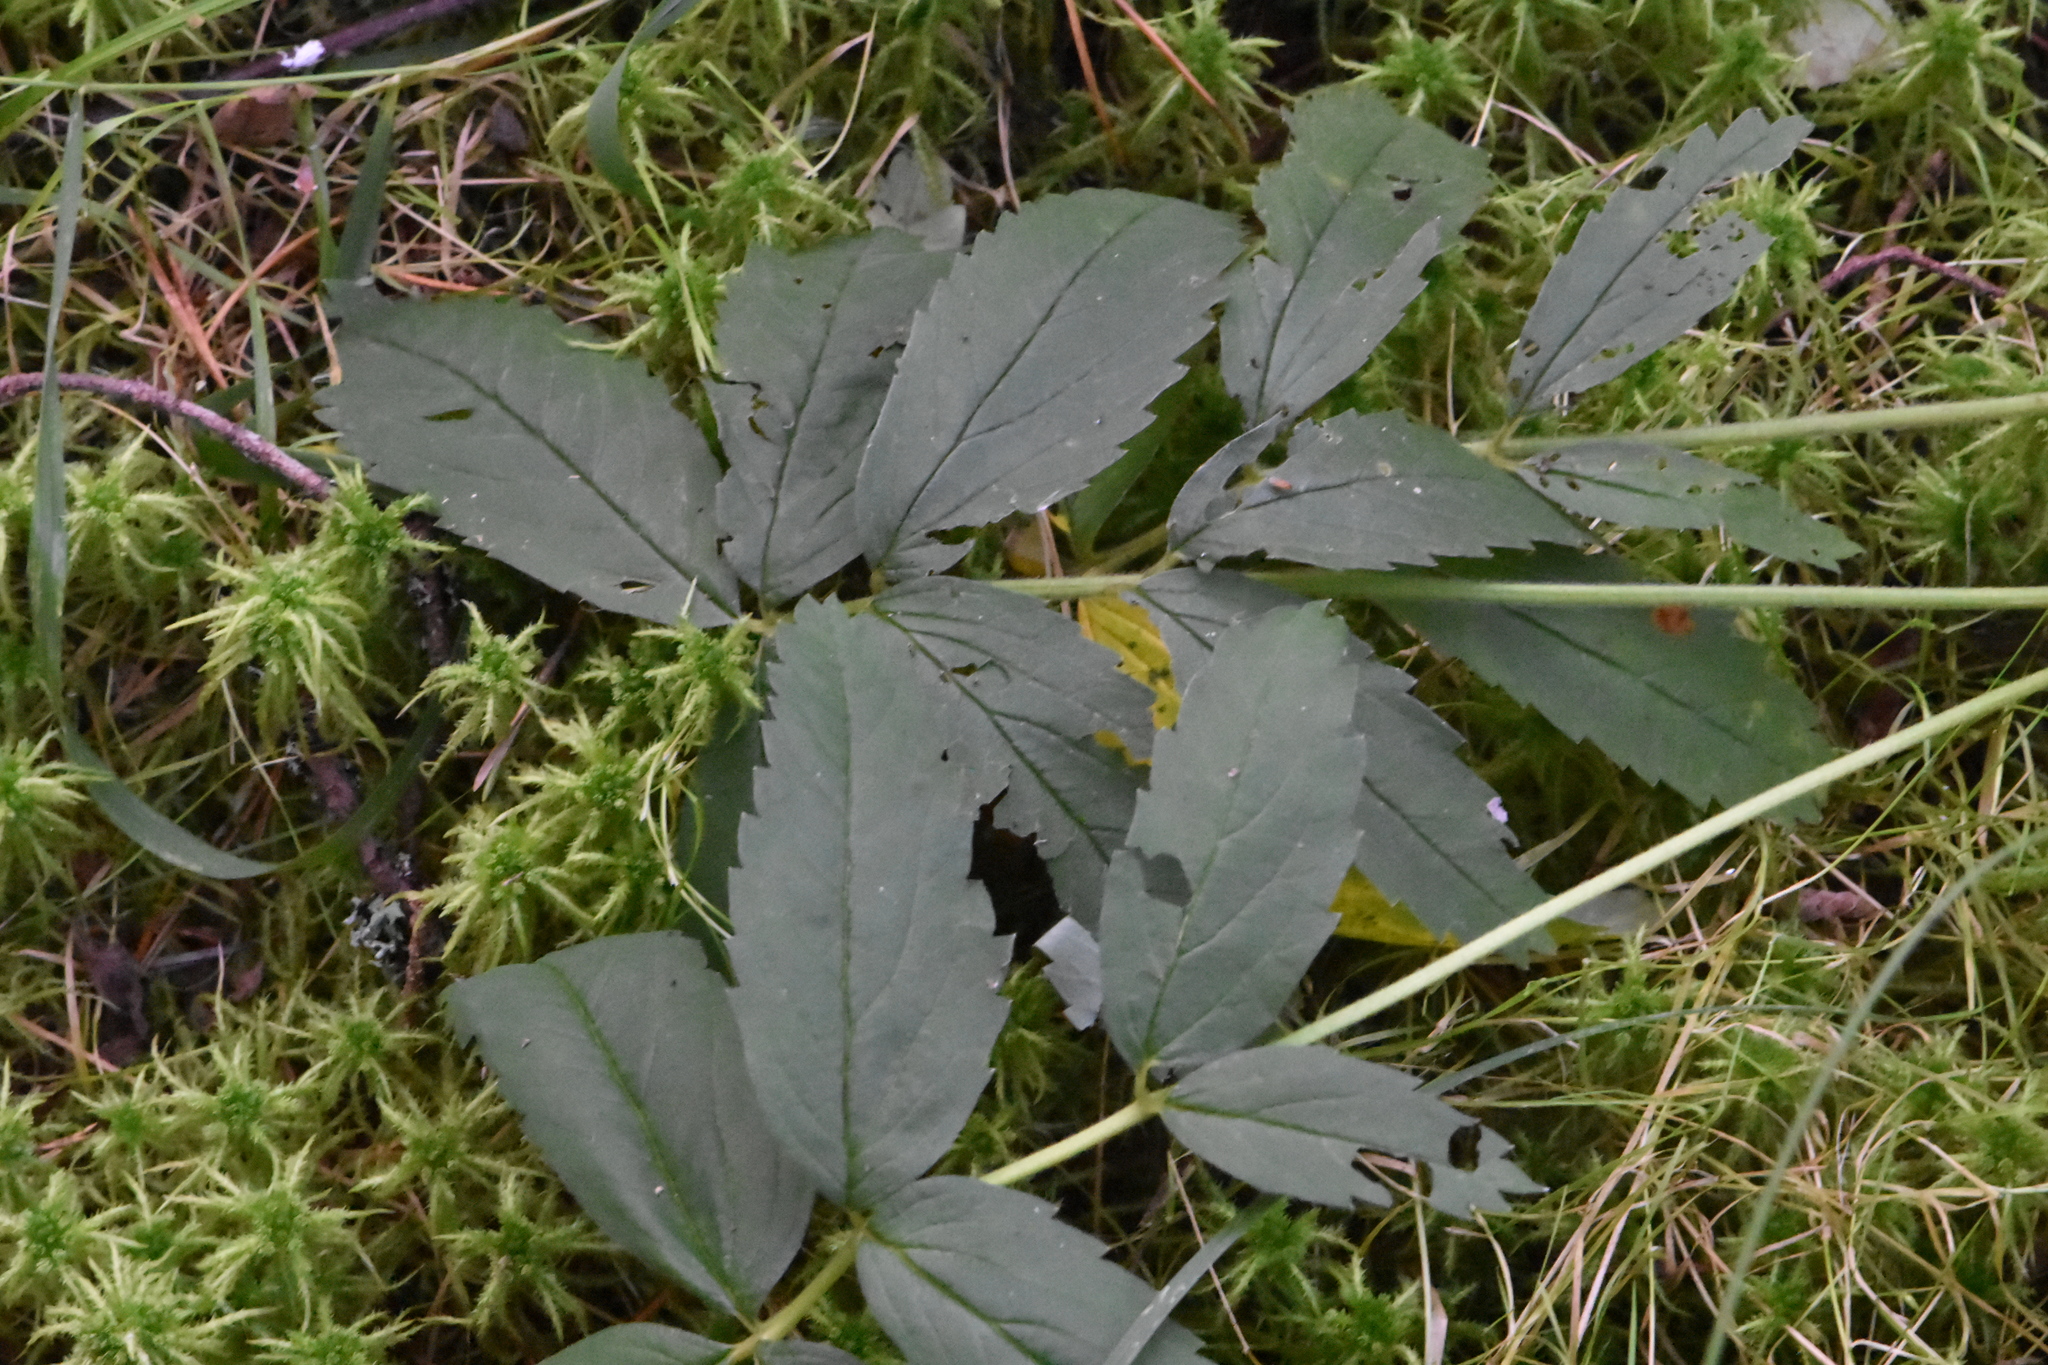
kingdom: Plantae
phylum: Tracheophyta
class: Magnoliopsida
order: Rosales
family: Rosaceae
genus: Comarum
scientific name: Comarum palustre
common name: Marsh cinquefoil
